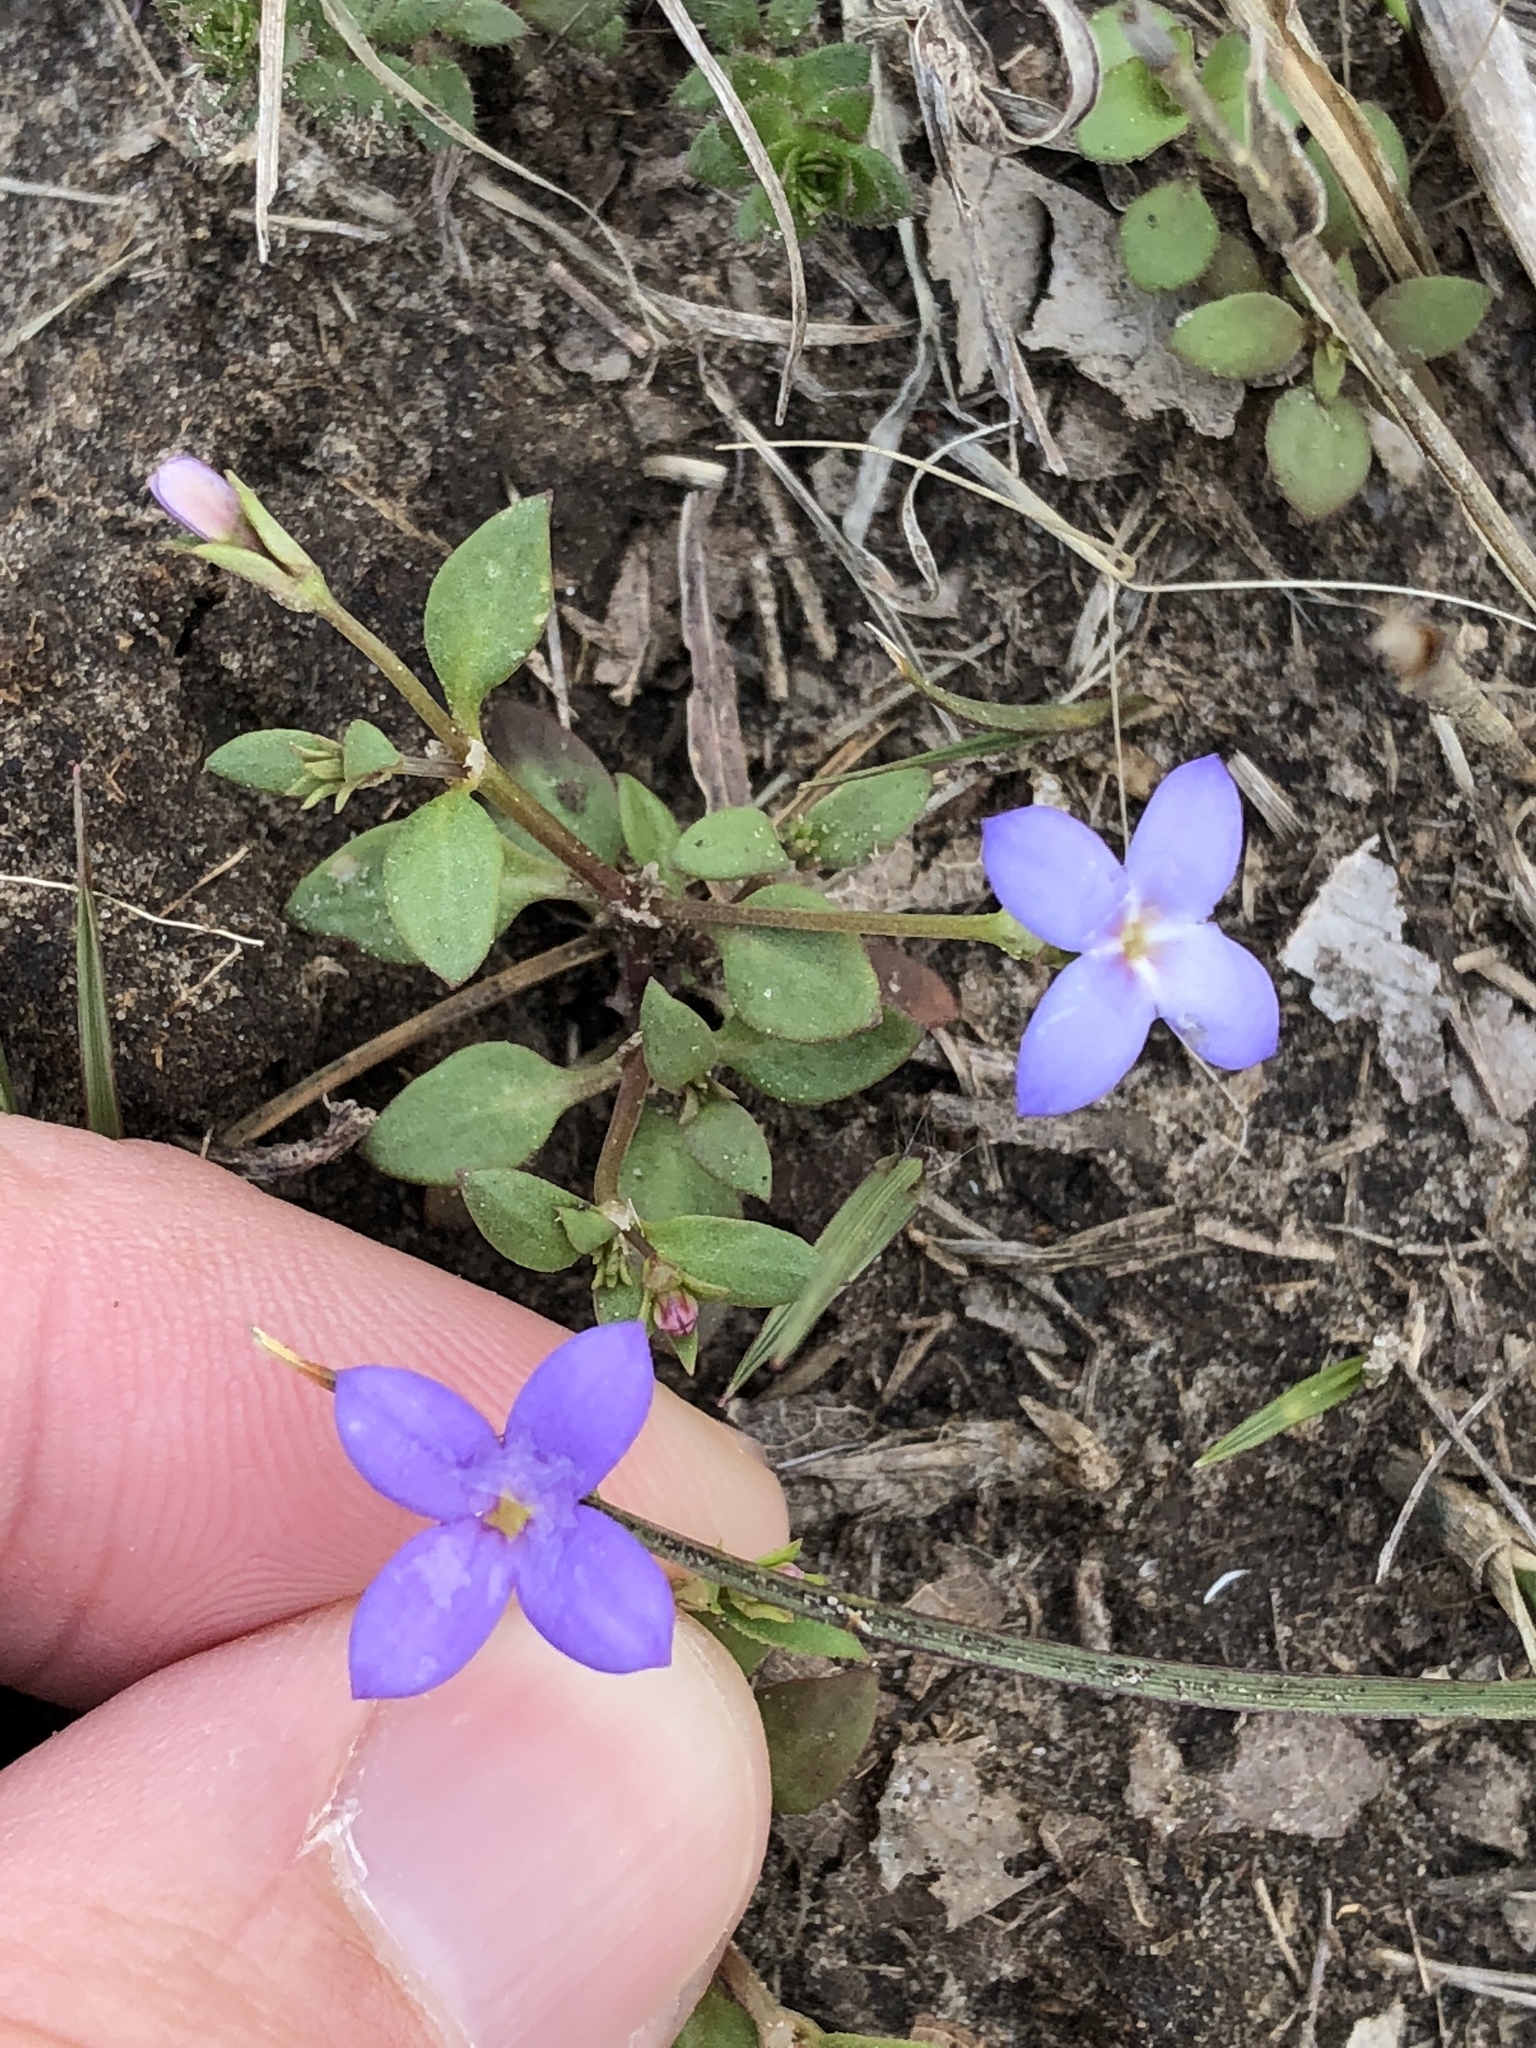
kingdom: Plantae
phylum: Tracheophyta
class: Magnoliopsida
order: Gentianales
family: Rubiaceae
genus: Houstonia
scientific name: Houstonia pusilla
